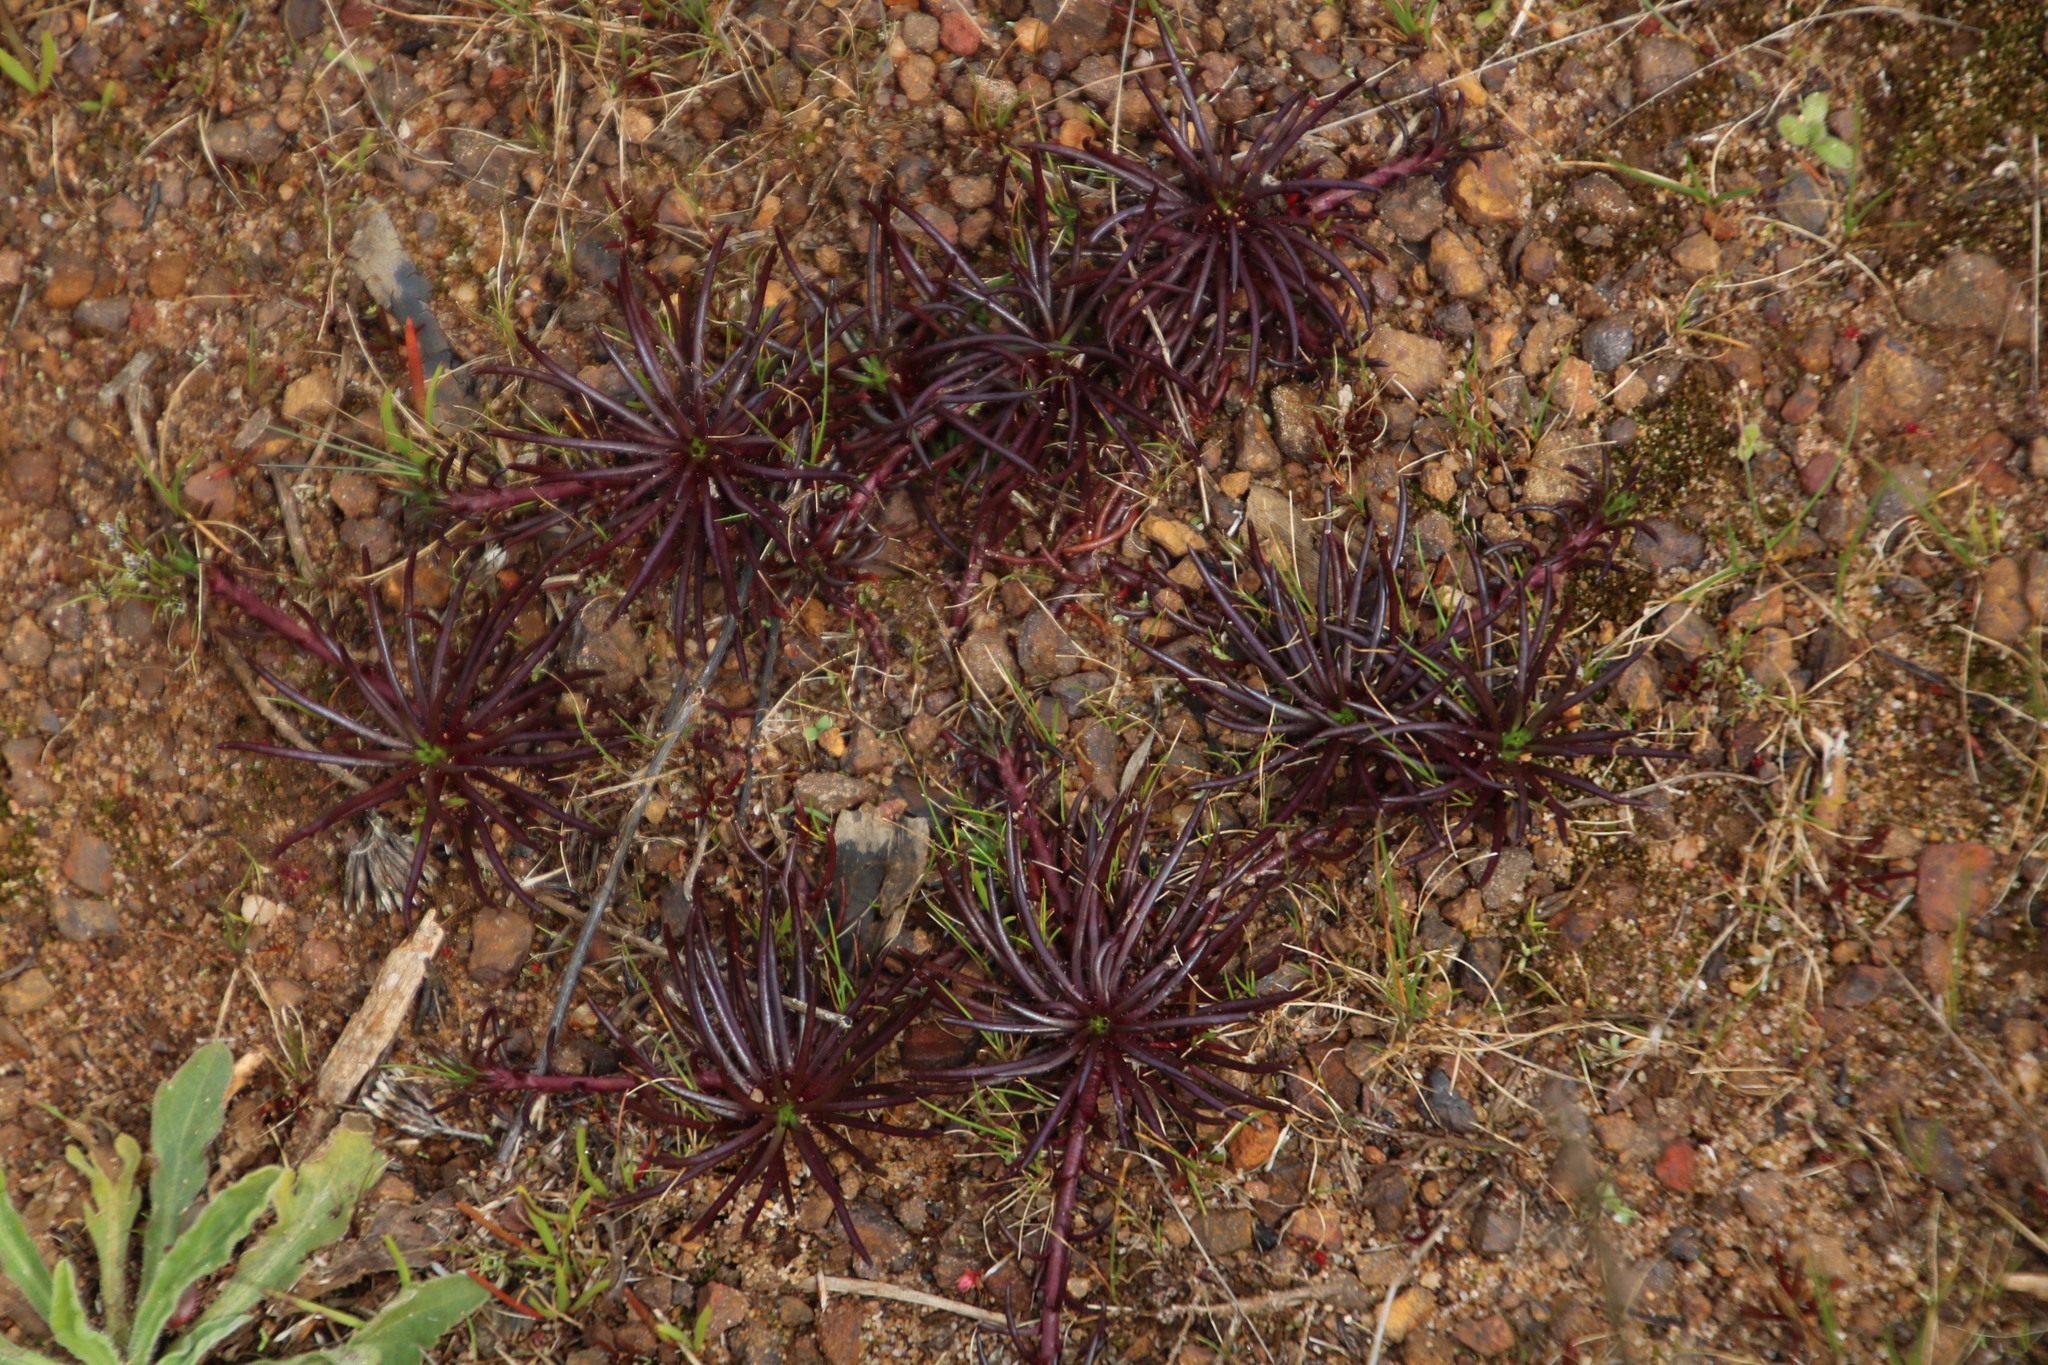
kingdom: Plantae
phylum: Tracheophyta
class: Magnoliopsida
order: Asterales
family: Asteraceae
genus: Felicia
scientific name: Felicia tenella
